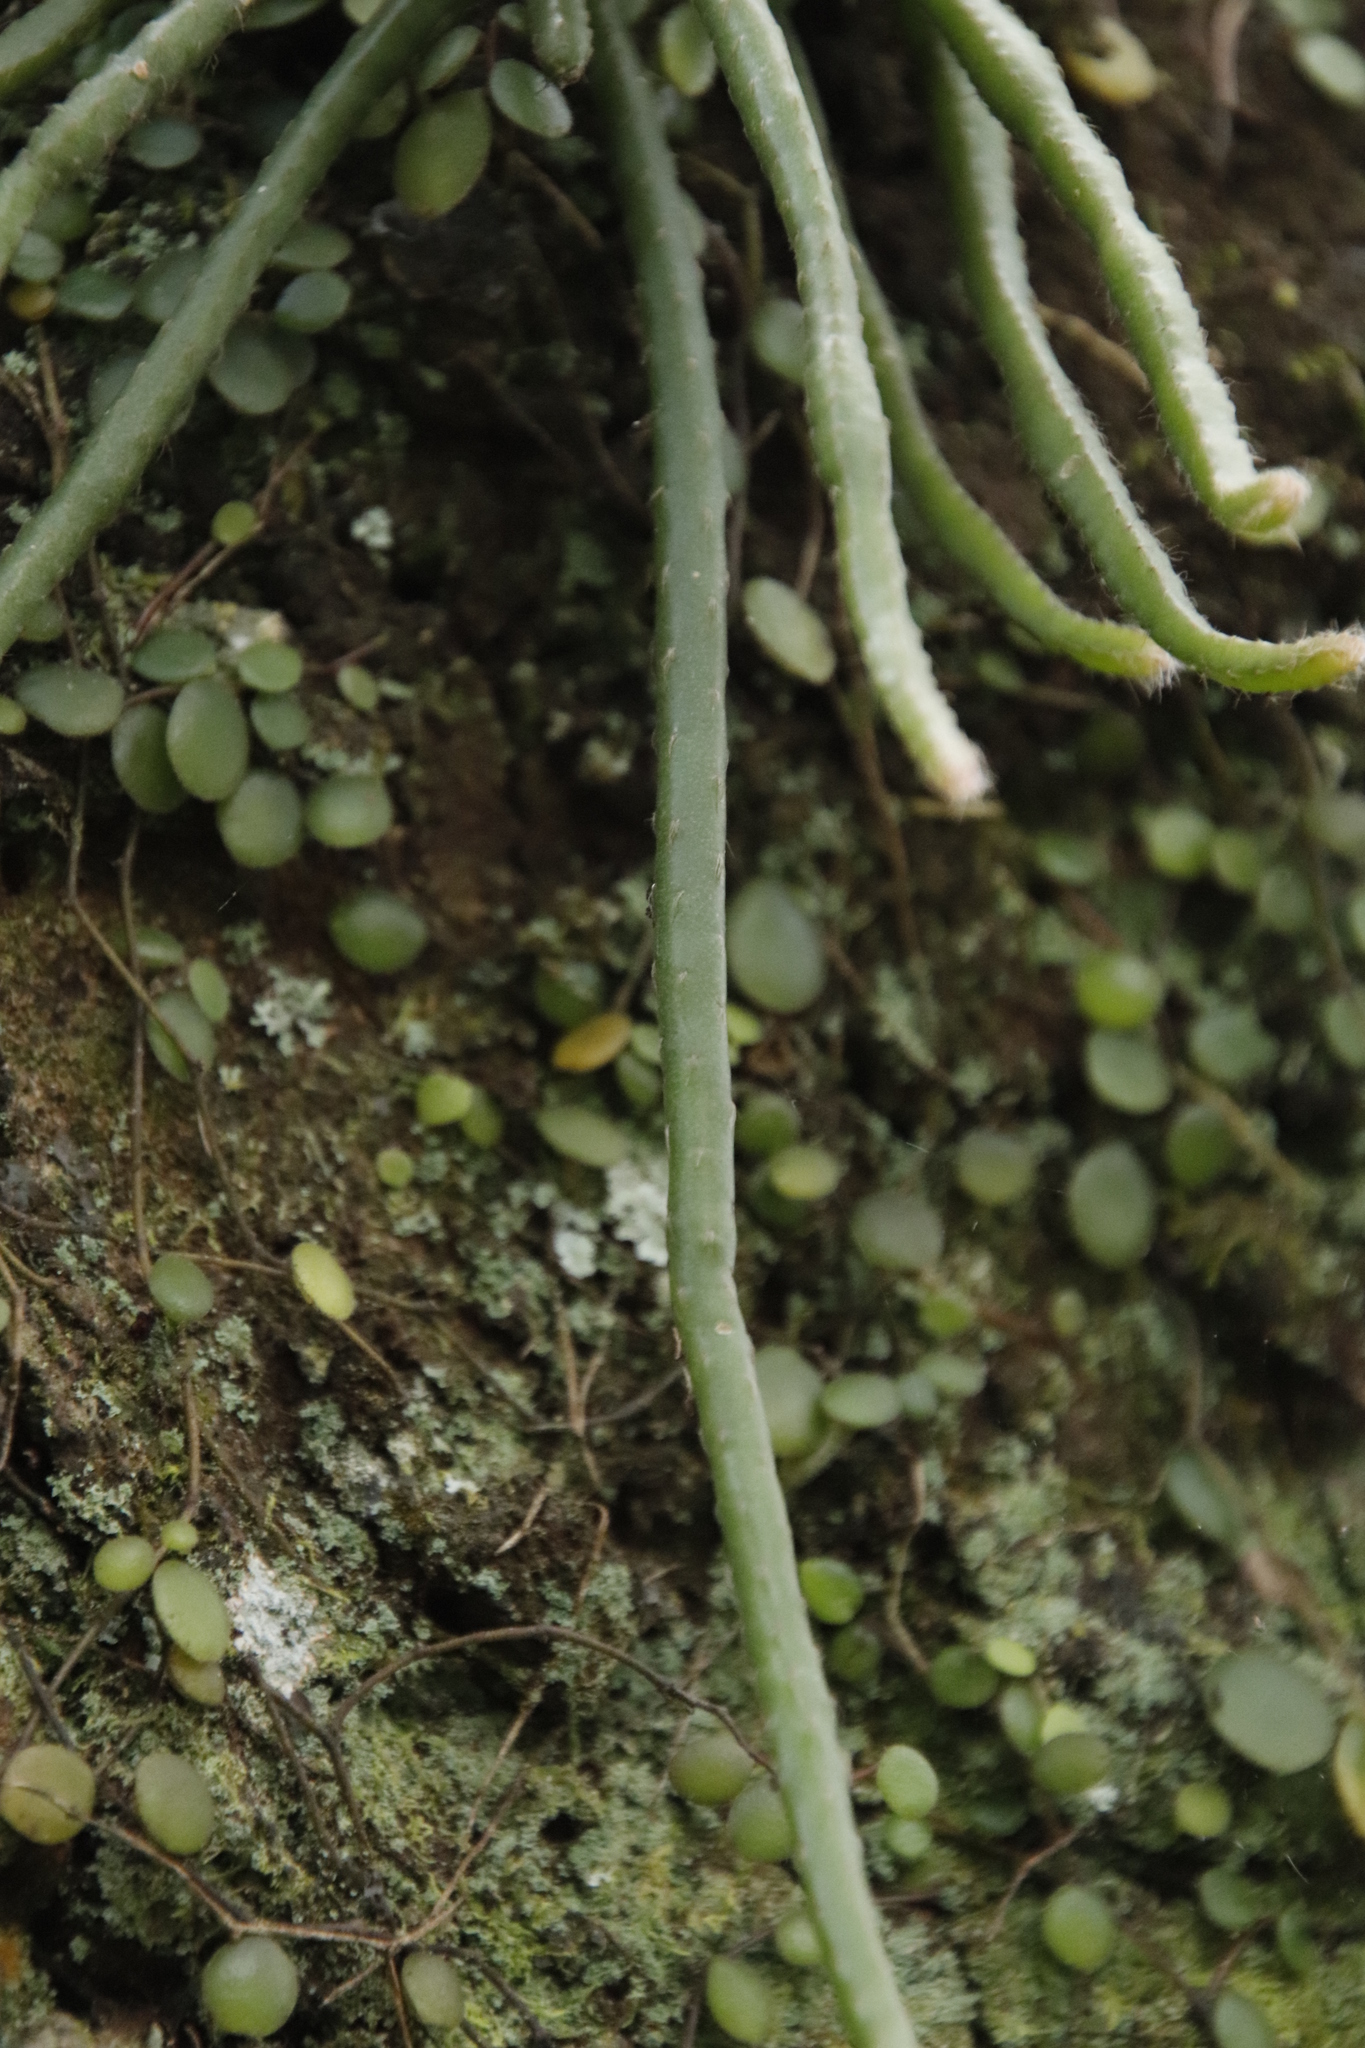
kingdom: Plantae
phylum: Tracheophyta
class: Magnoliopsida
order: Caryophyllales
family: Cactaceae
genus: Rhipsalis
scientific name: Rhipsalis baccifera
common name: Mistletoe cactus
